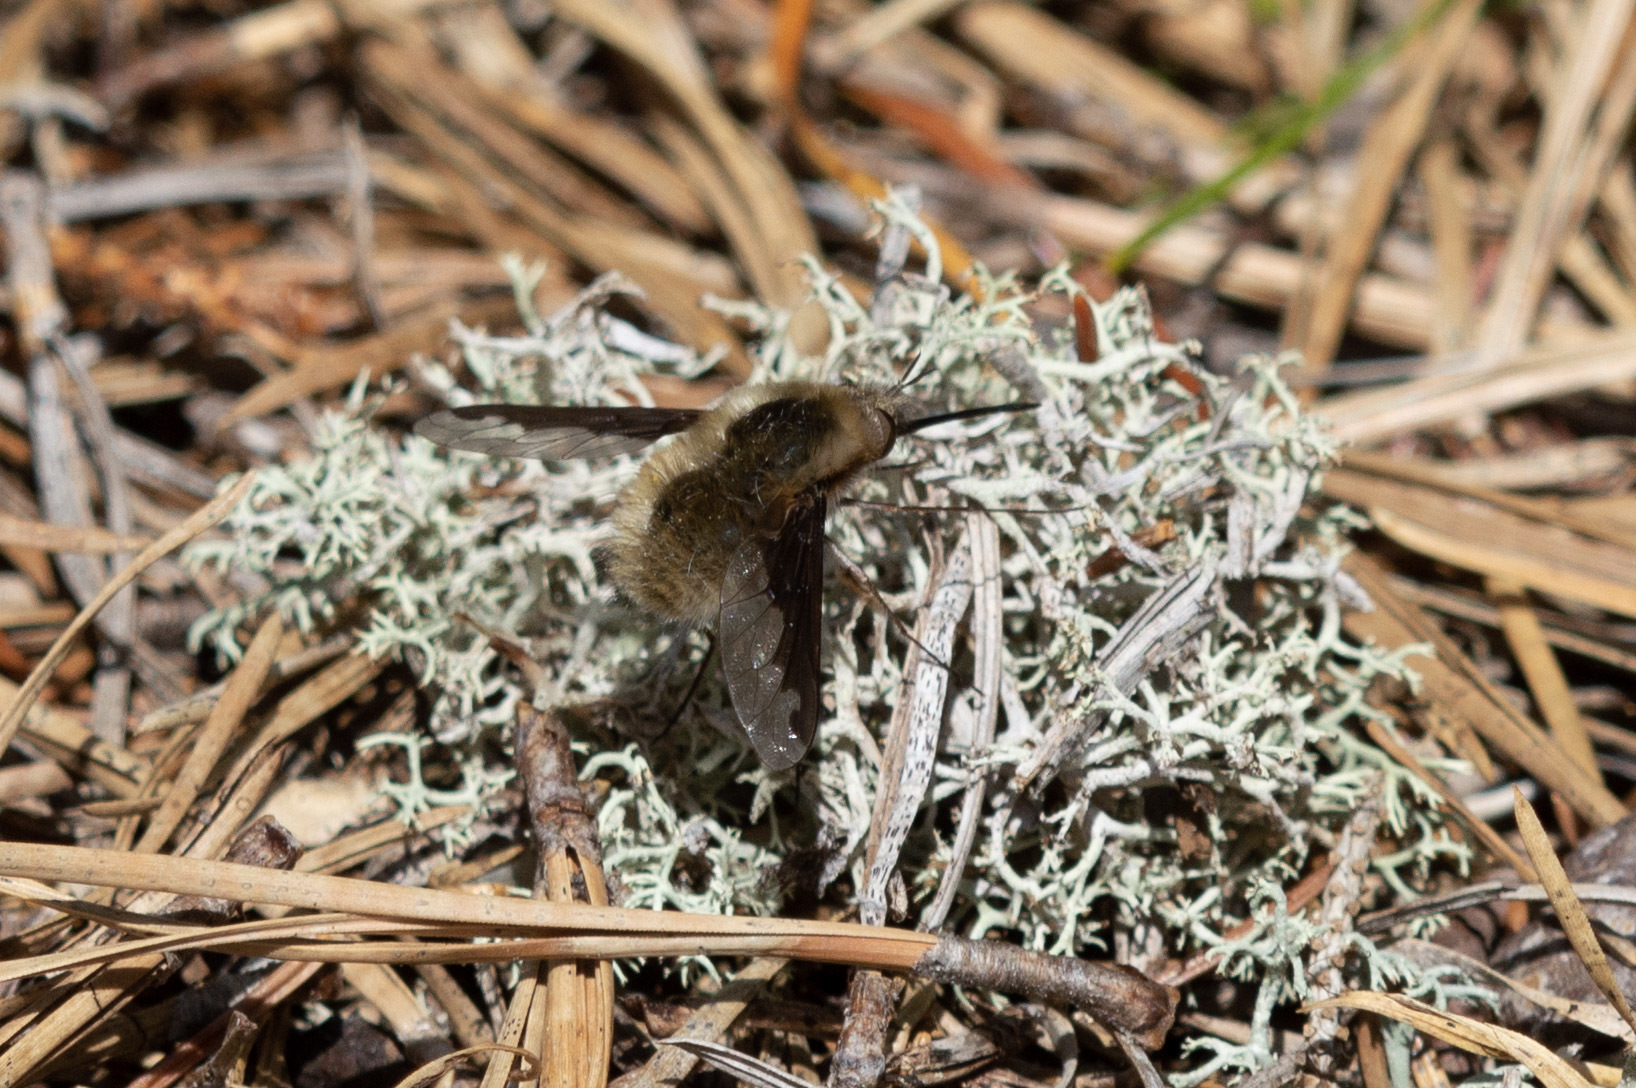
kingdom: Animalia
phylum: Arthropoda
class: Insecta
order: Diptera
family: Bombyliidae
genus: Bombylius
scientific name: Bombylius major
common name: Bee fly
